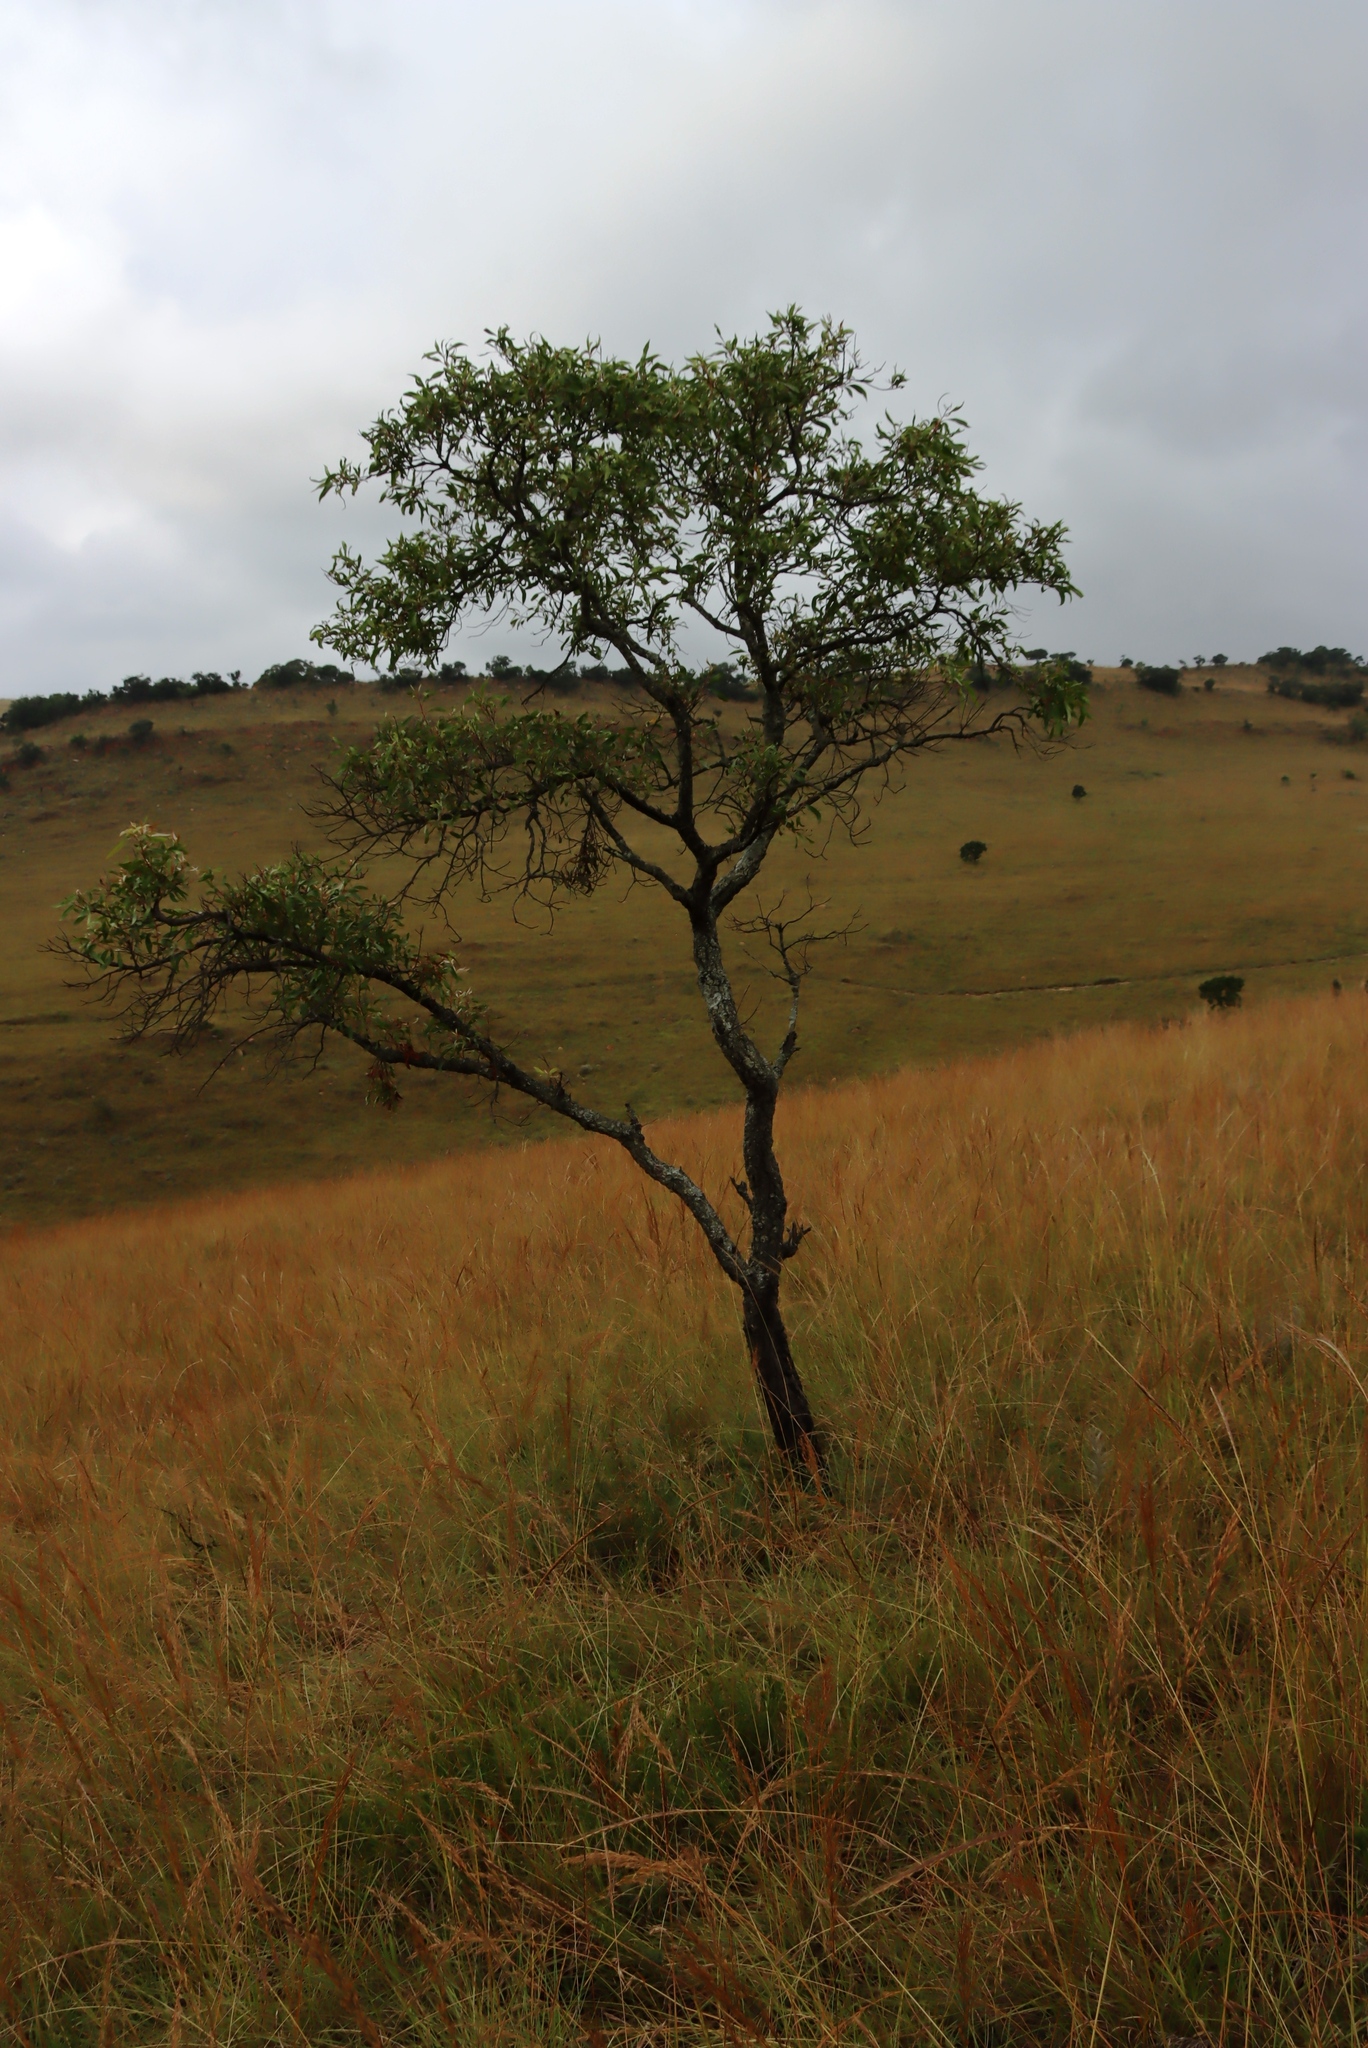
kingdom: Plantae
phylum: Tracheophyta
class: Magnoliopsida
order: Proteales
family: Proteaceae
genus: Faurea
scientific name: Faurea saligna
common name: African bean
